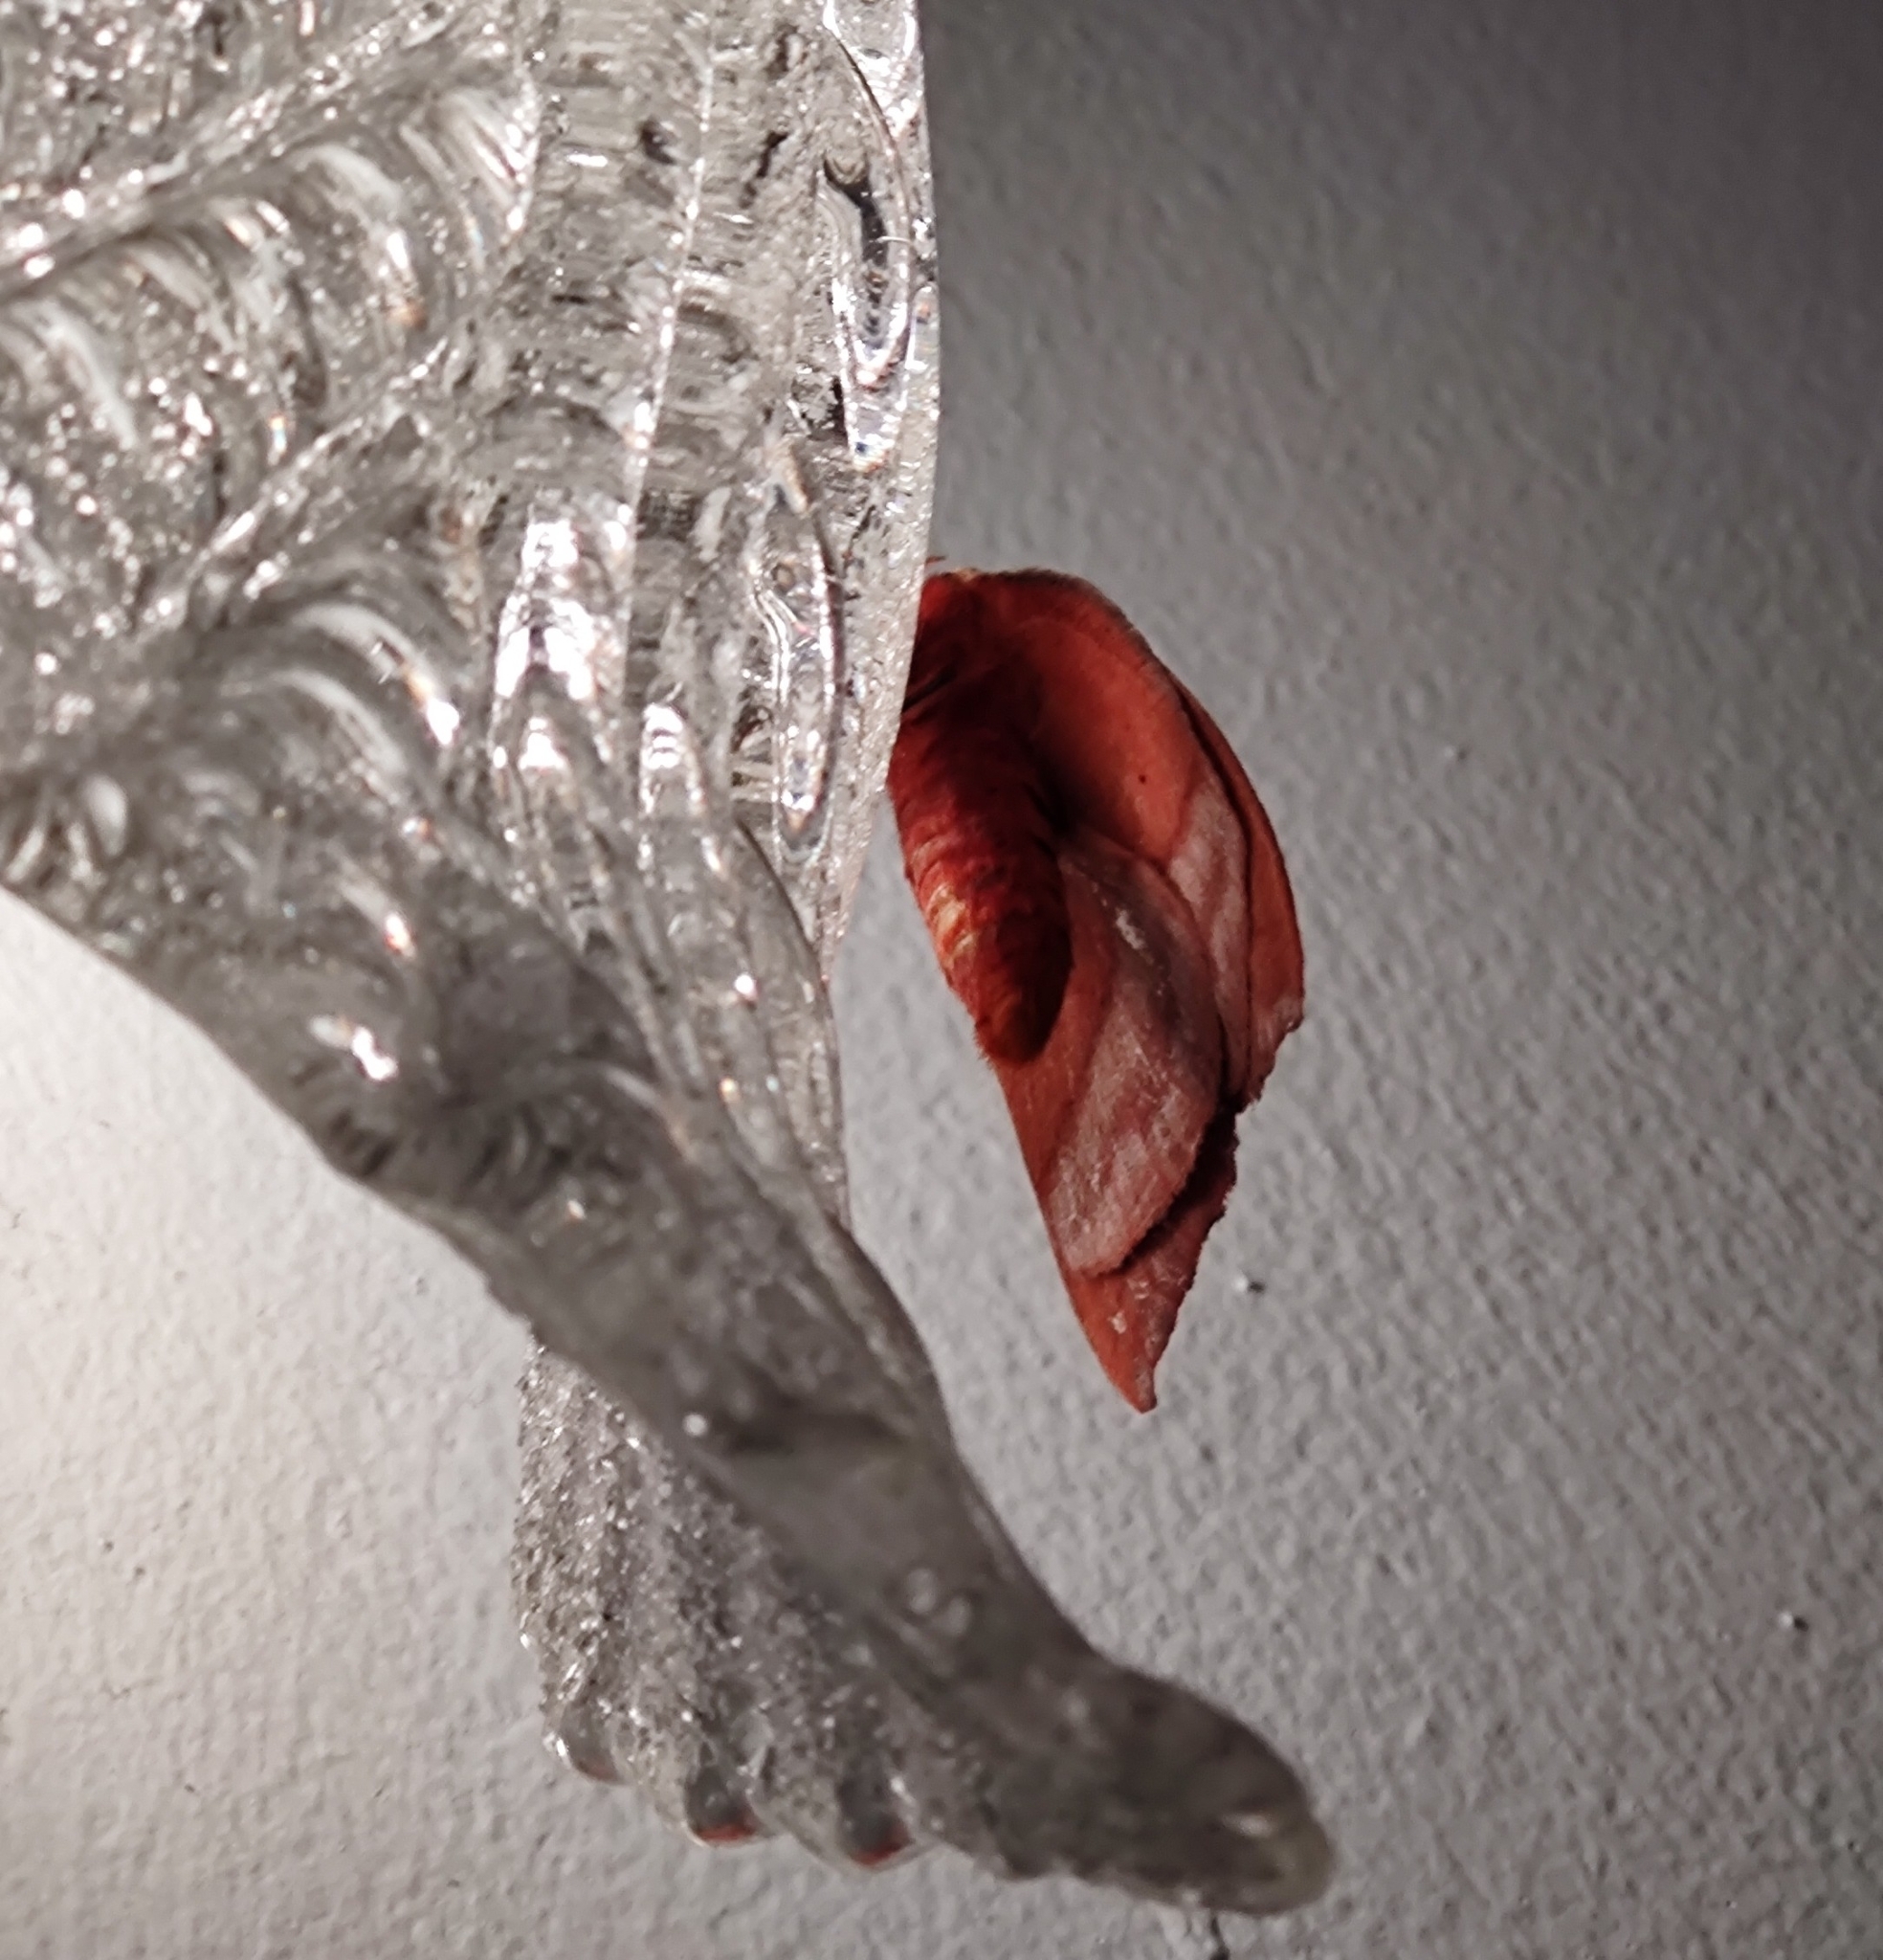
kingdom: Animalia
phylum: Arthropoda
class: Insecta
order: Lepidoptera
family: Saturniidae
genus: Hyperchiria
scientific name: Hyperchiria incisa
